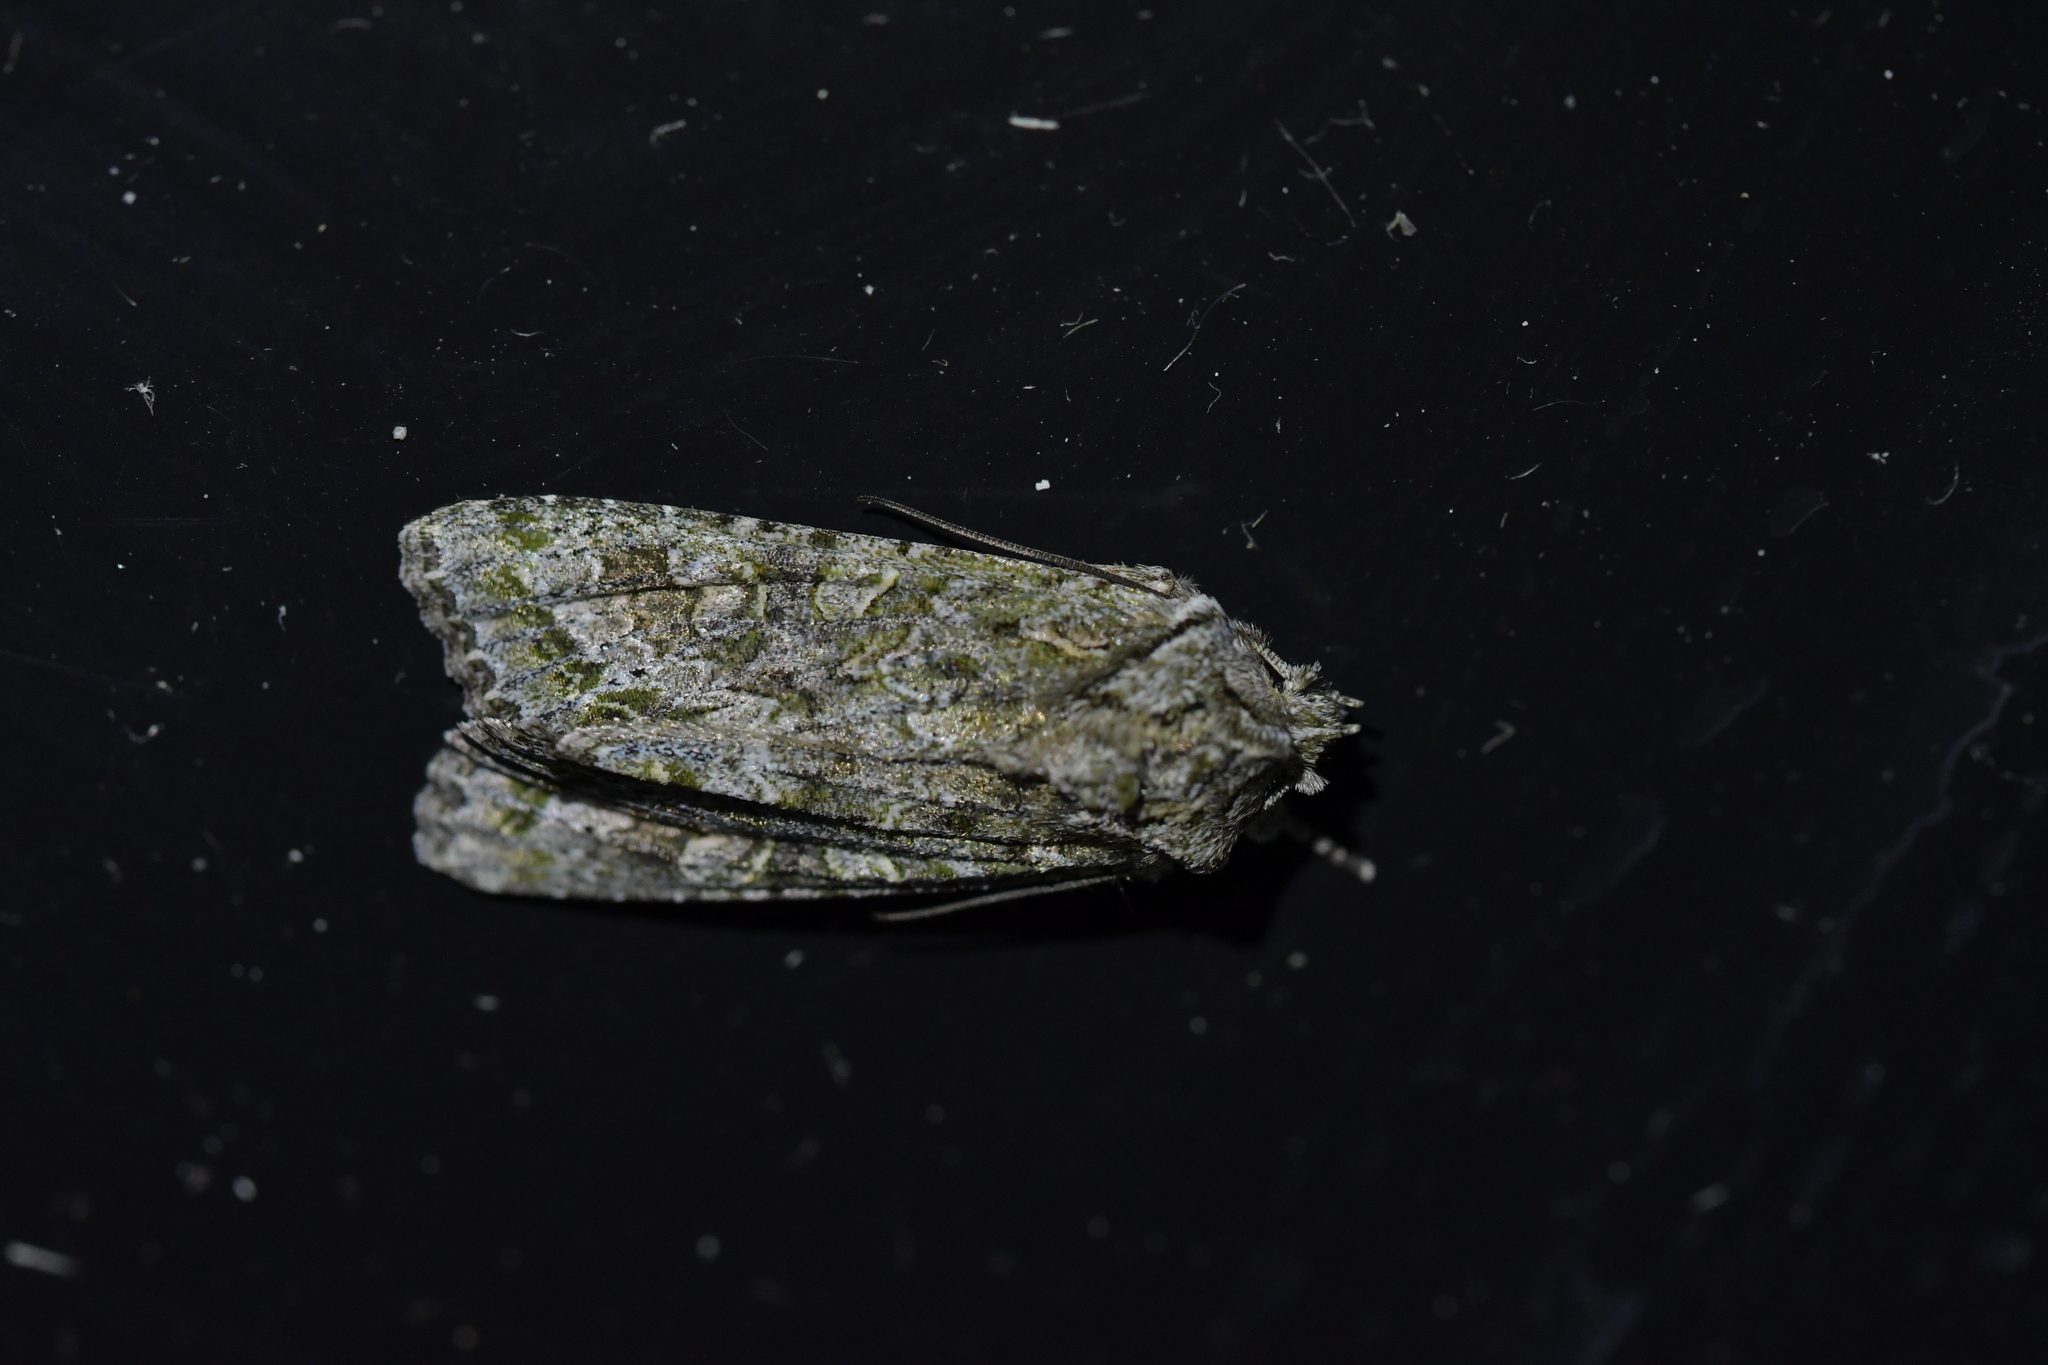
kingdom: Animalia
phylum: Arthropoda
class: Insecta
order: Lepidoptera
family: Noctuidae
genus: Ichneutica
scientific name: Ichneutica mutans
